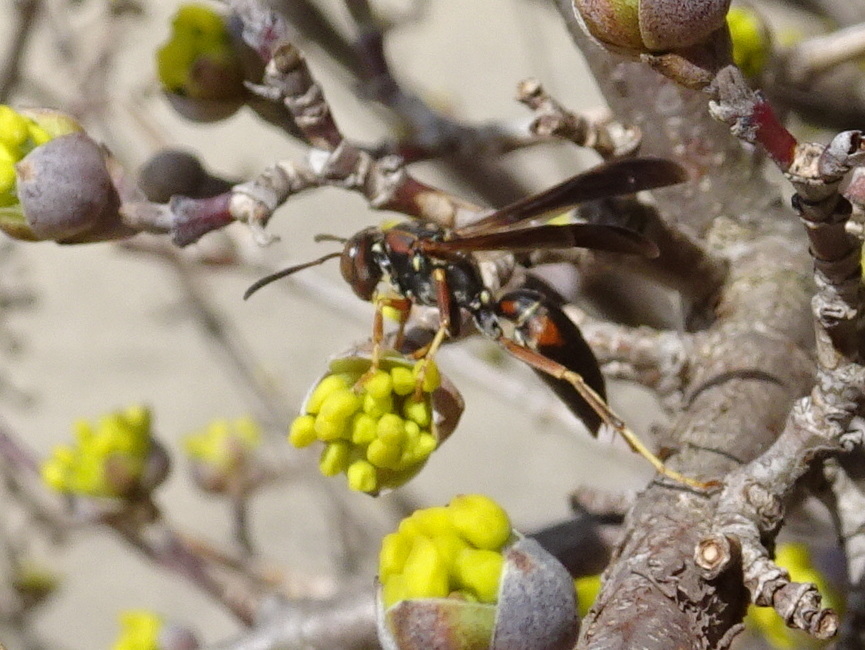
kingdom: Animalia
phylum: Arthropoda
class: Insecta
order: Hymenoptera
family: Eumenidae
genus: Polistes
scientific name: Polistes fuscatus
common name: Dark paper wasp
